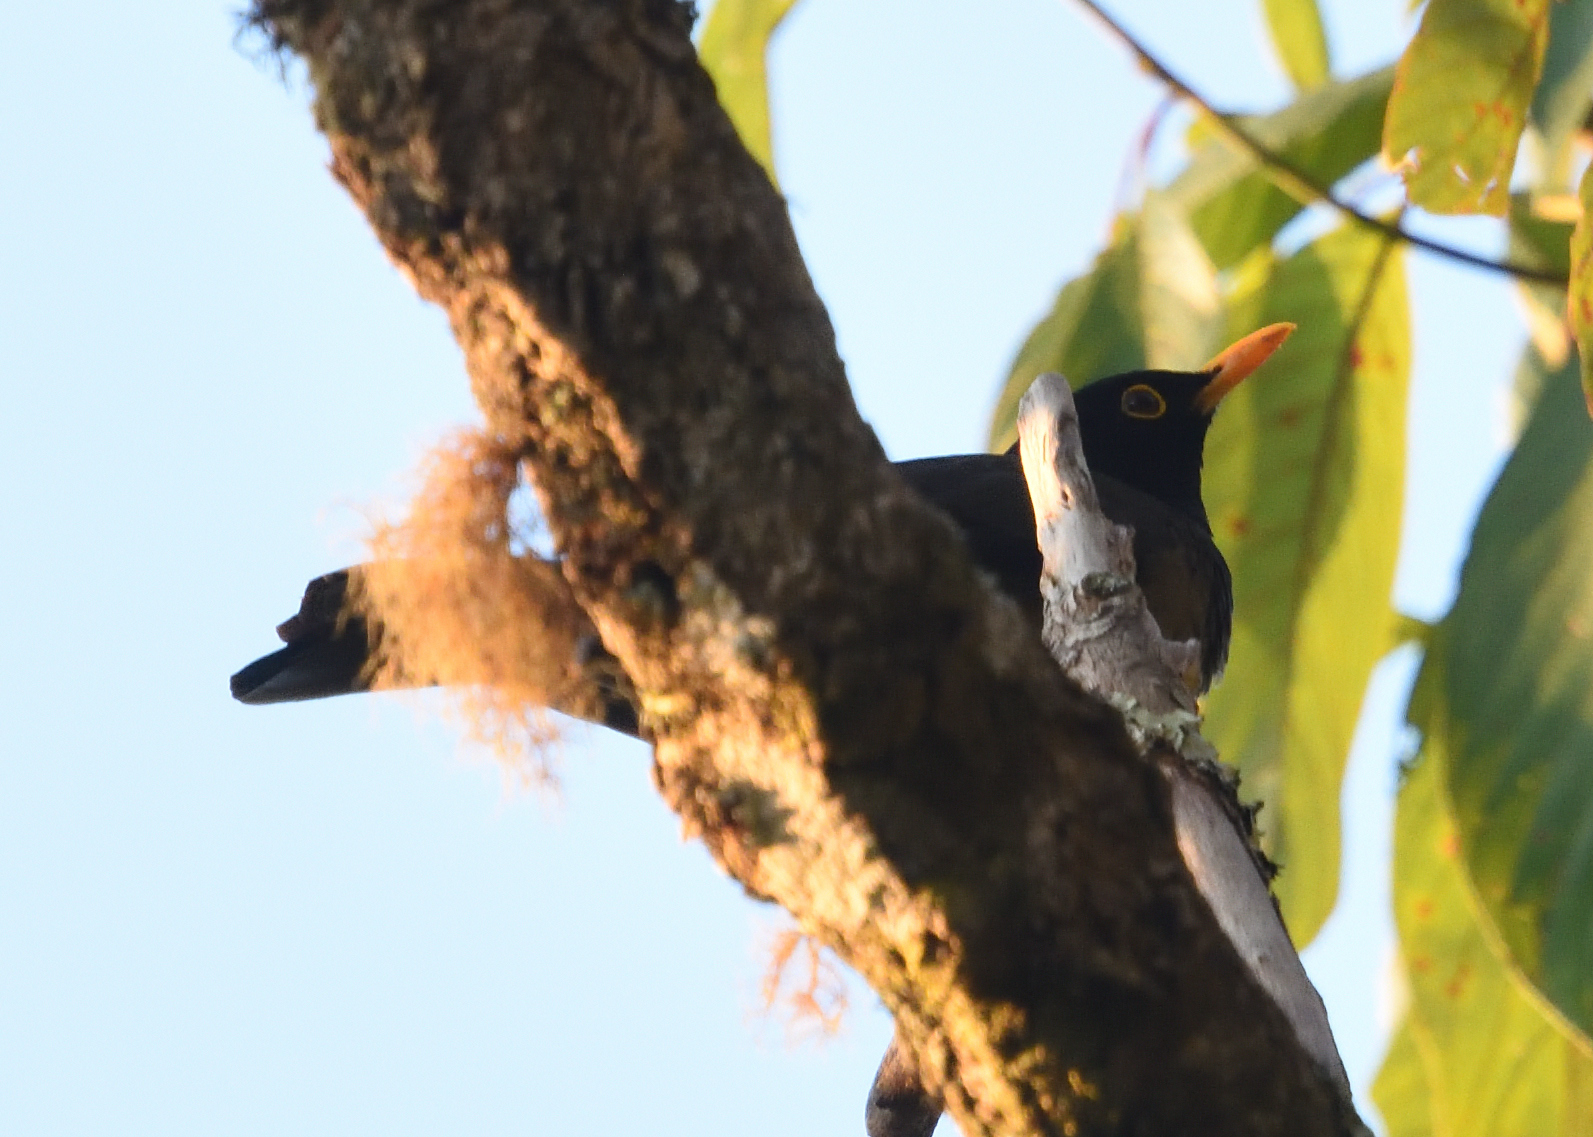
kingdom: Animalia
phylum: Chordata
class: Aves
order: Passeriformes
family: Turdidae
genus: Turdus
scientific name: Turdus olivater
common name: Black-hooded thrush
